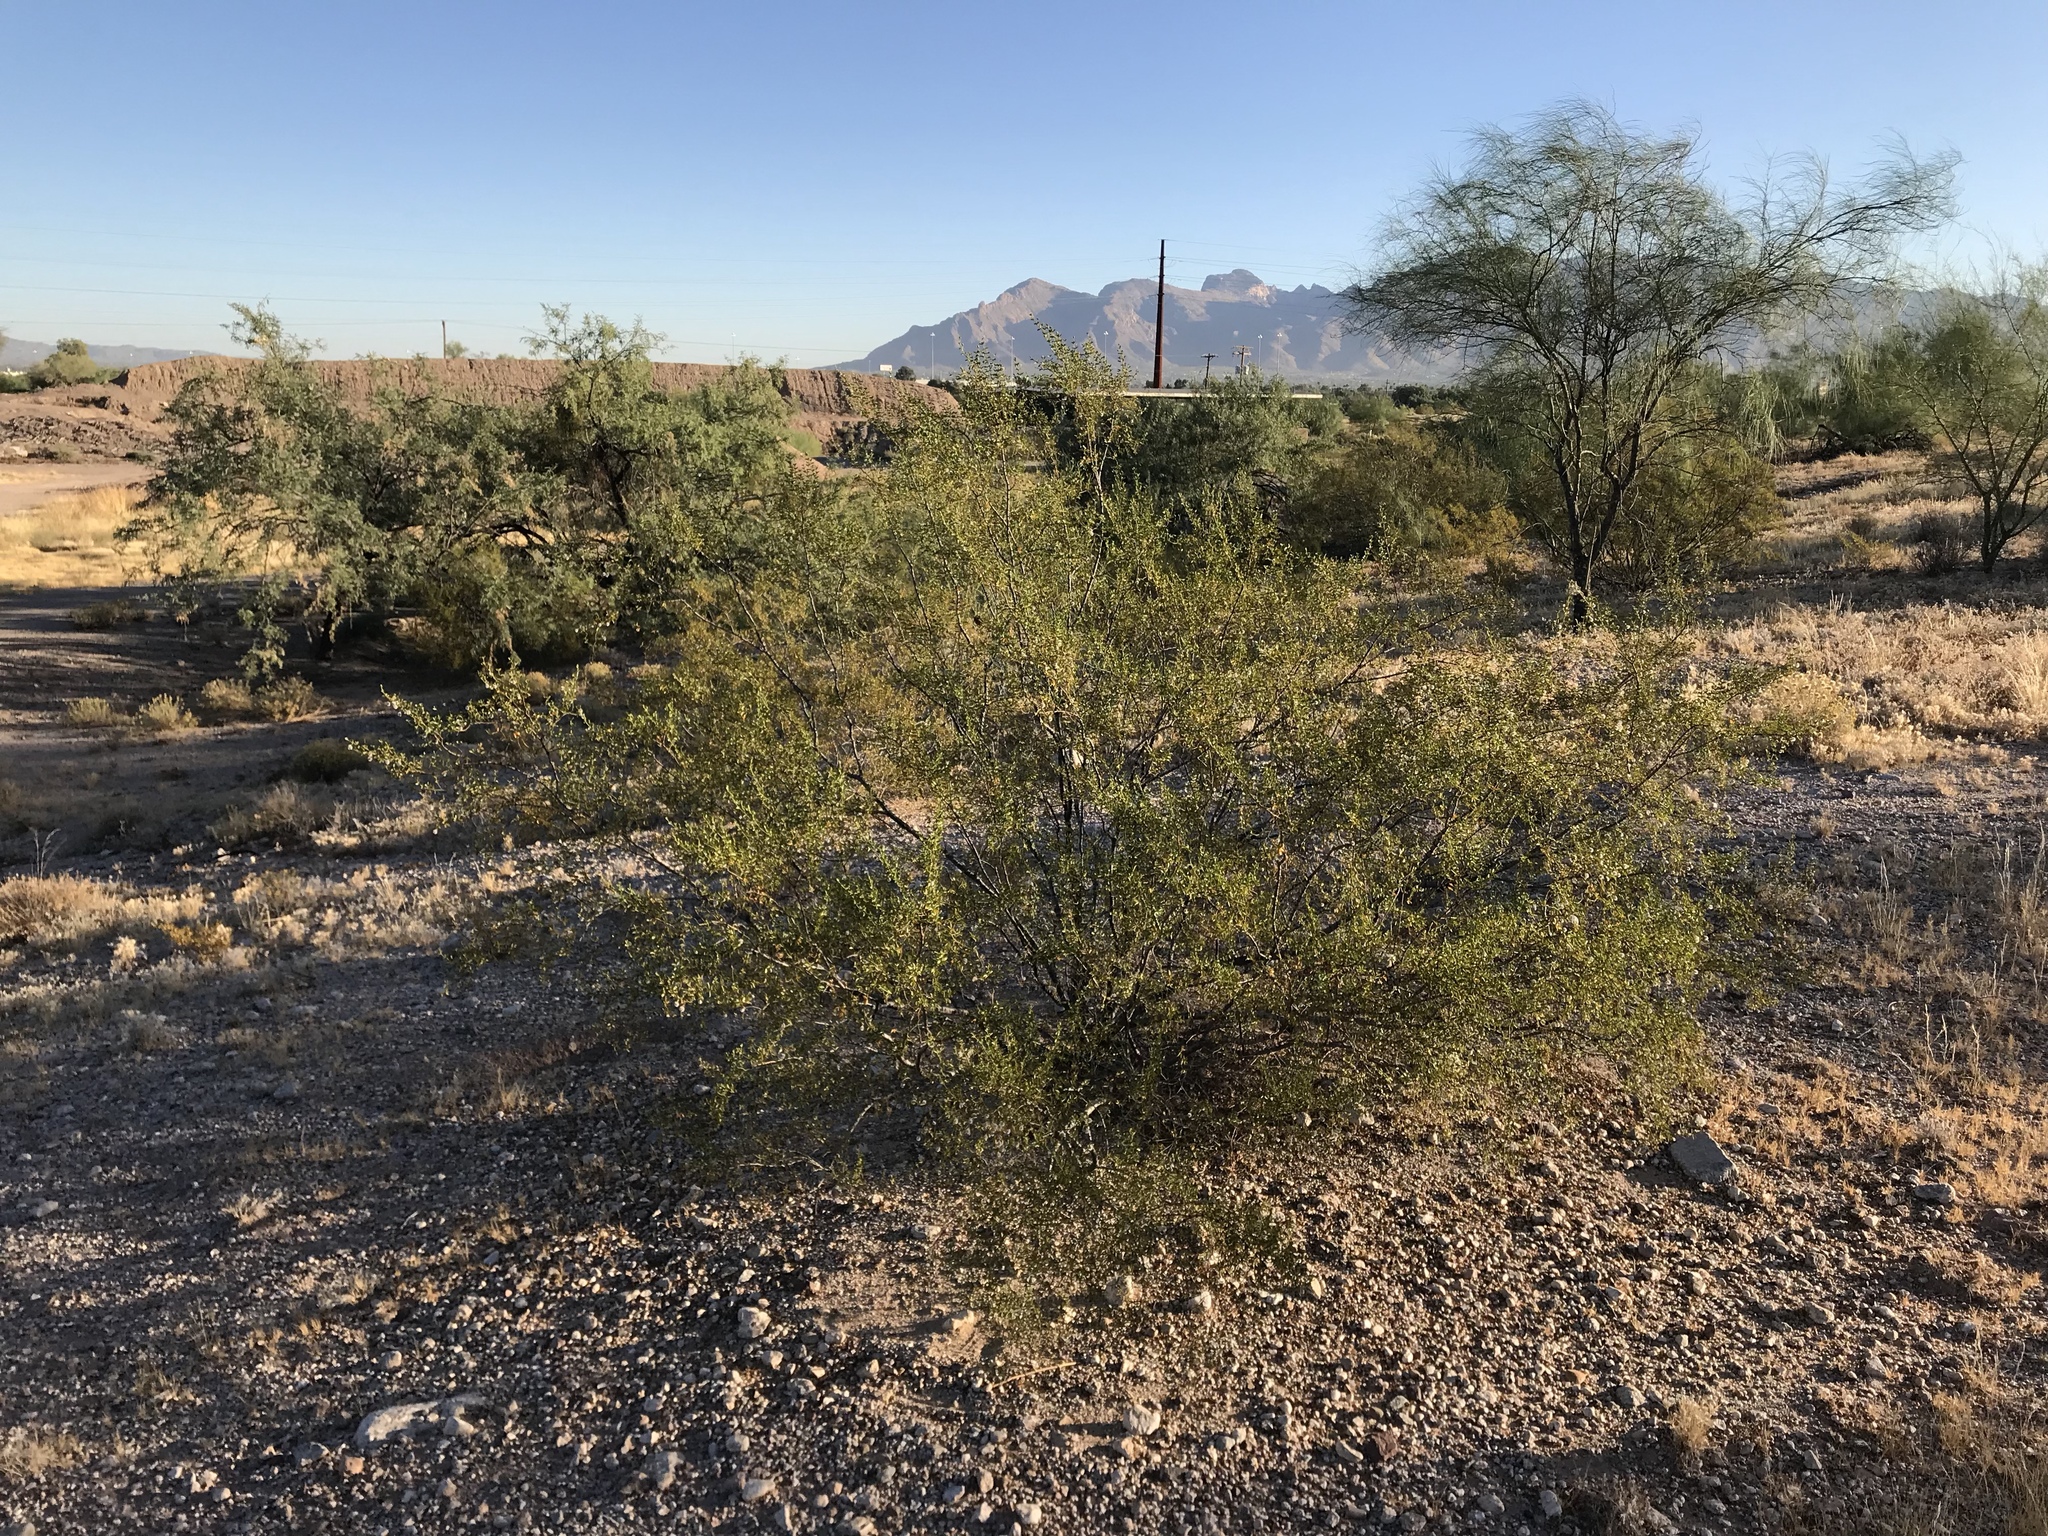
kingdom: Plantae
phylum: Tracheophyta
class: Magnoliopsida
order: Zygophyllales
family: Zygophyllaceae
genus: Larrea
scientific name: Larrea tridentata
